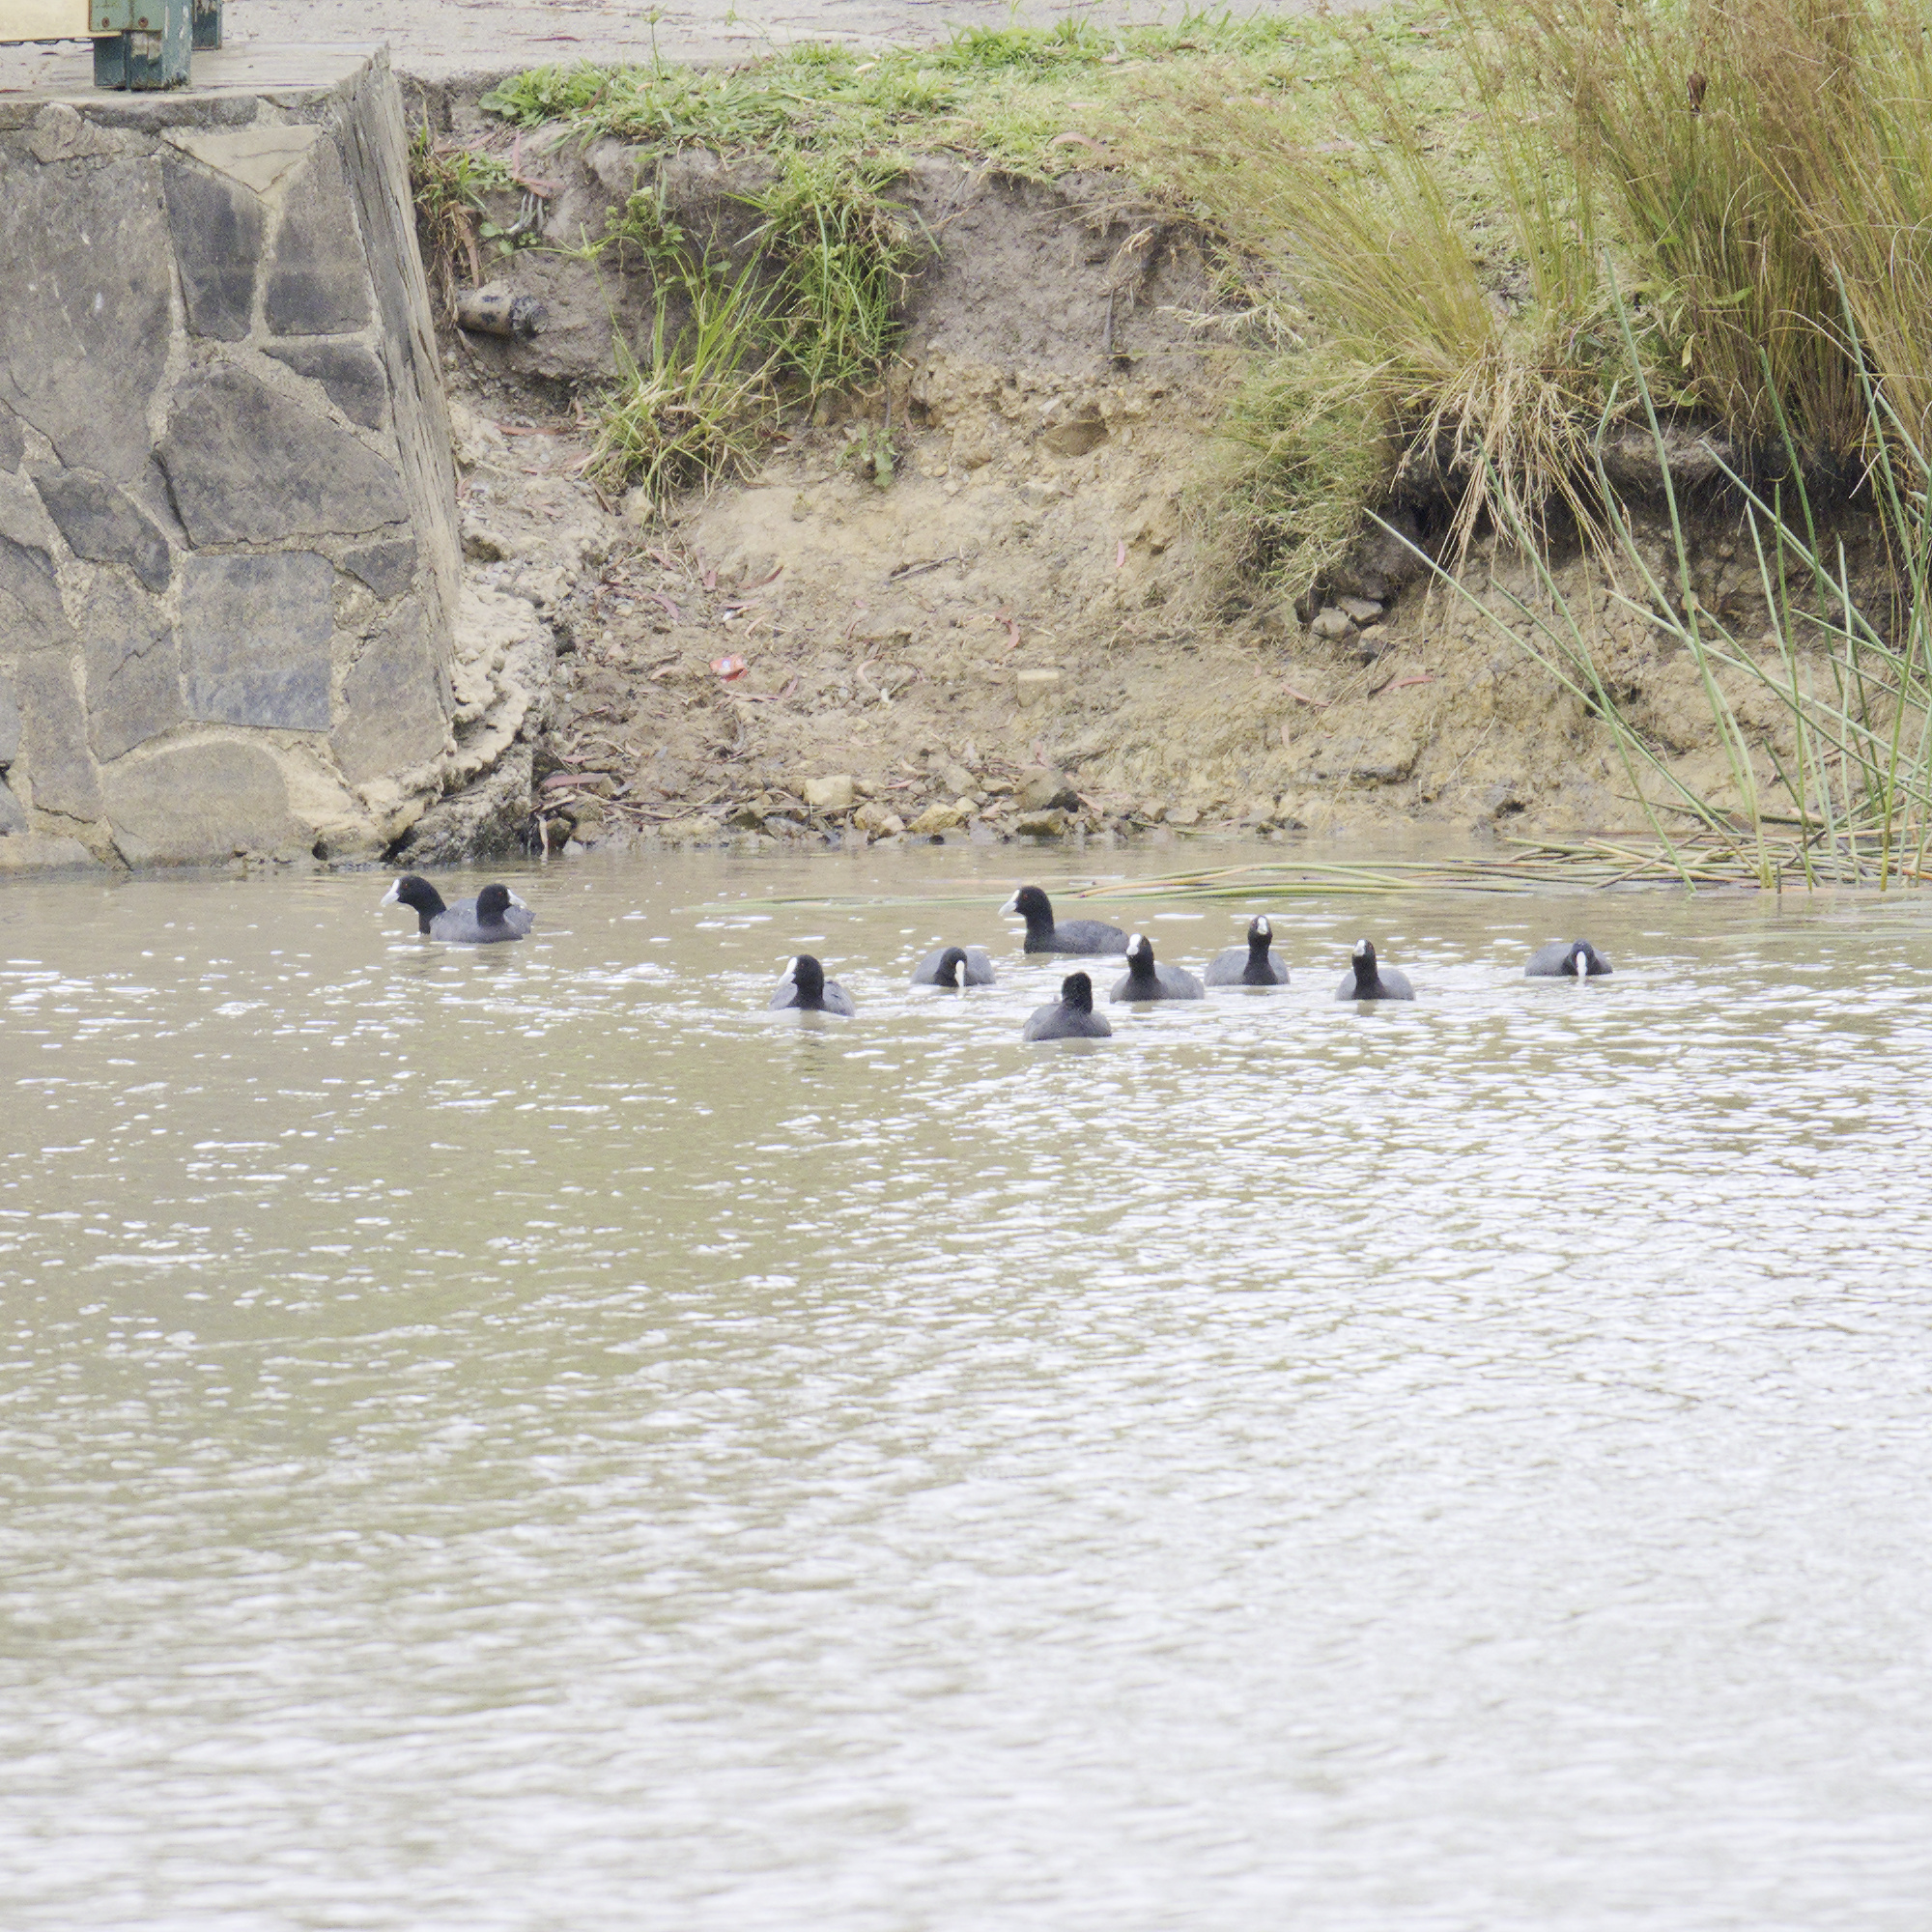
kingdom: Animalia
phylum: Chordata
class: Aves
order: Gruiformes
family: Rallidae
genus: Fulica
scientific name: Fulica atra
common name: Eurasian coot
